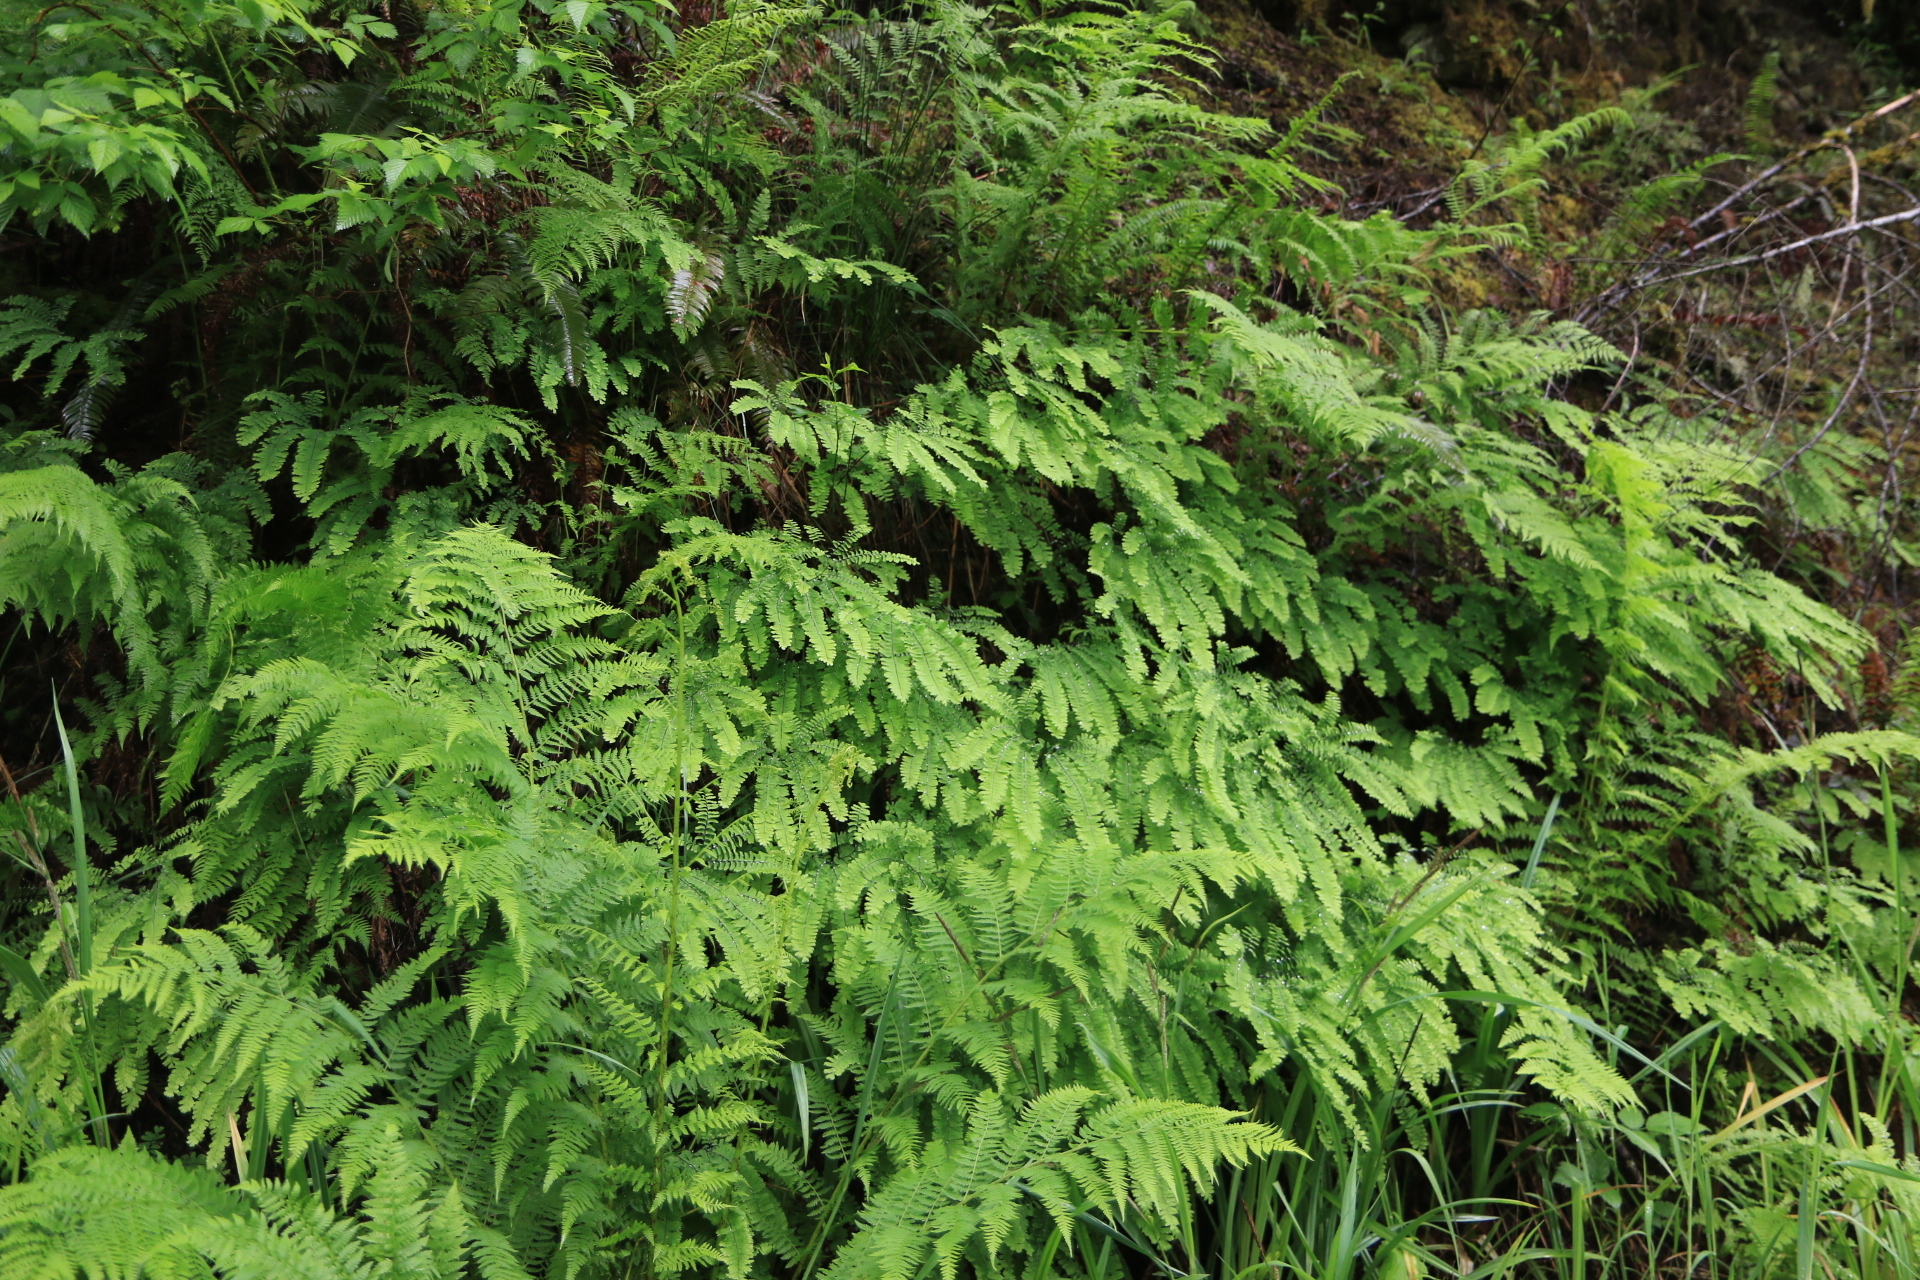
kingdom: Plantae
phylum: Tracheophyta
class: Polypodiopsida
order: Polypodiales
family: Pteridaceae
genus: Adiantum
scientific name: Adiantum aleuticum
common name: Aleutian maidenhair fern
